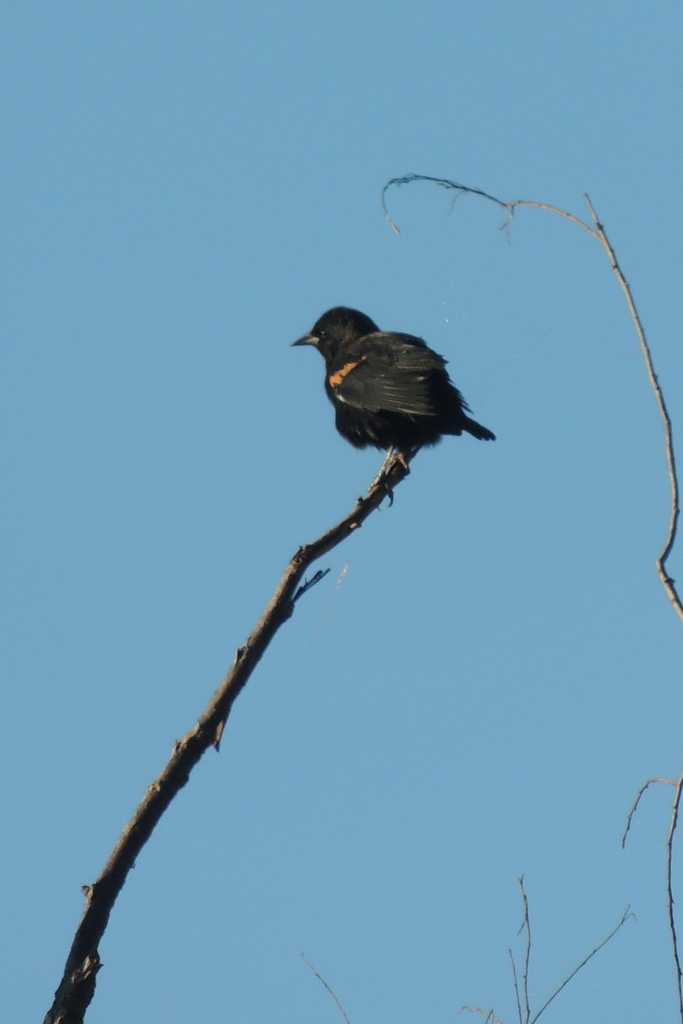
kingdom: Animalia
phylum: Chordata
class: Aves
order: Passeriformes
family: Icteridae
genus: Agelaius
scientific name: Agelaius phoeniceus
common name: Red-winged blackbird
